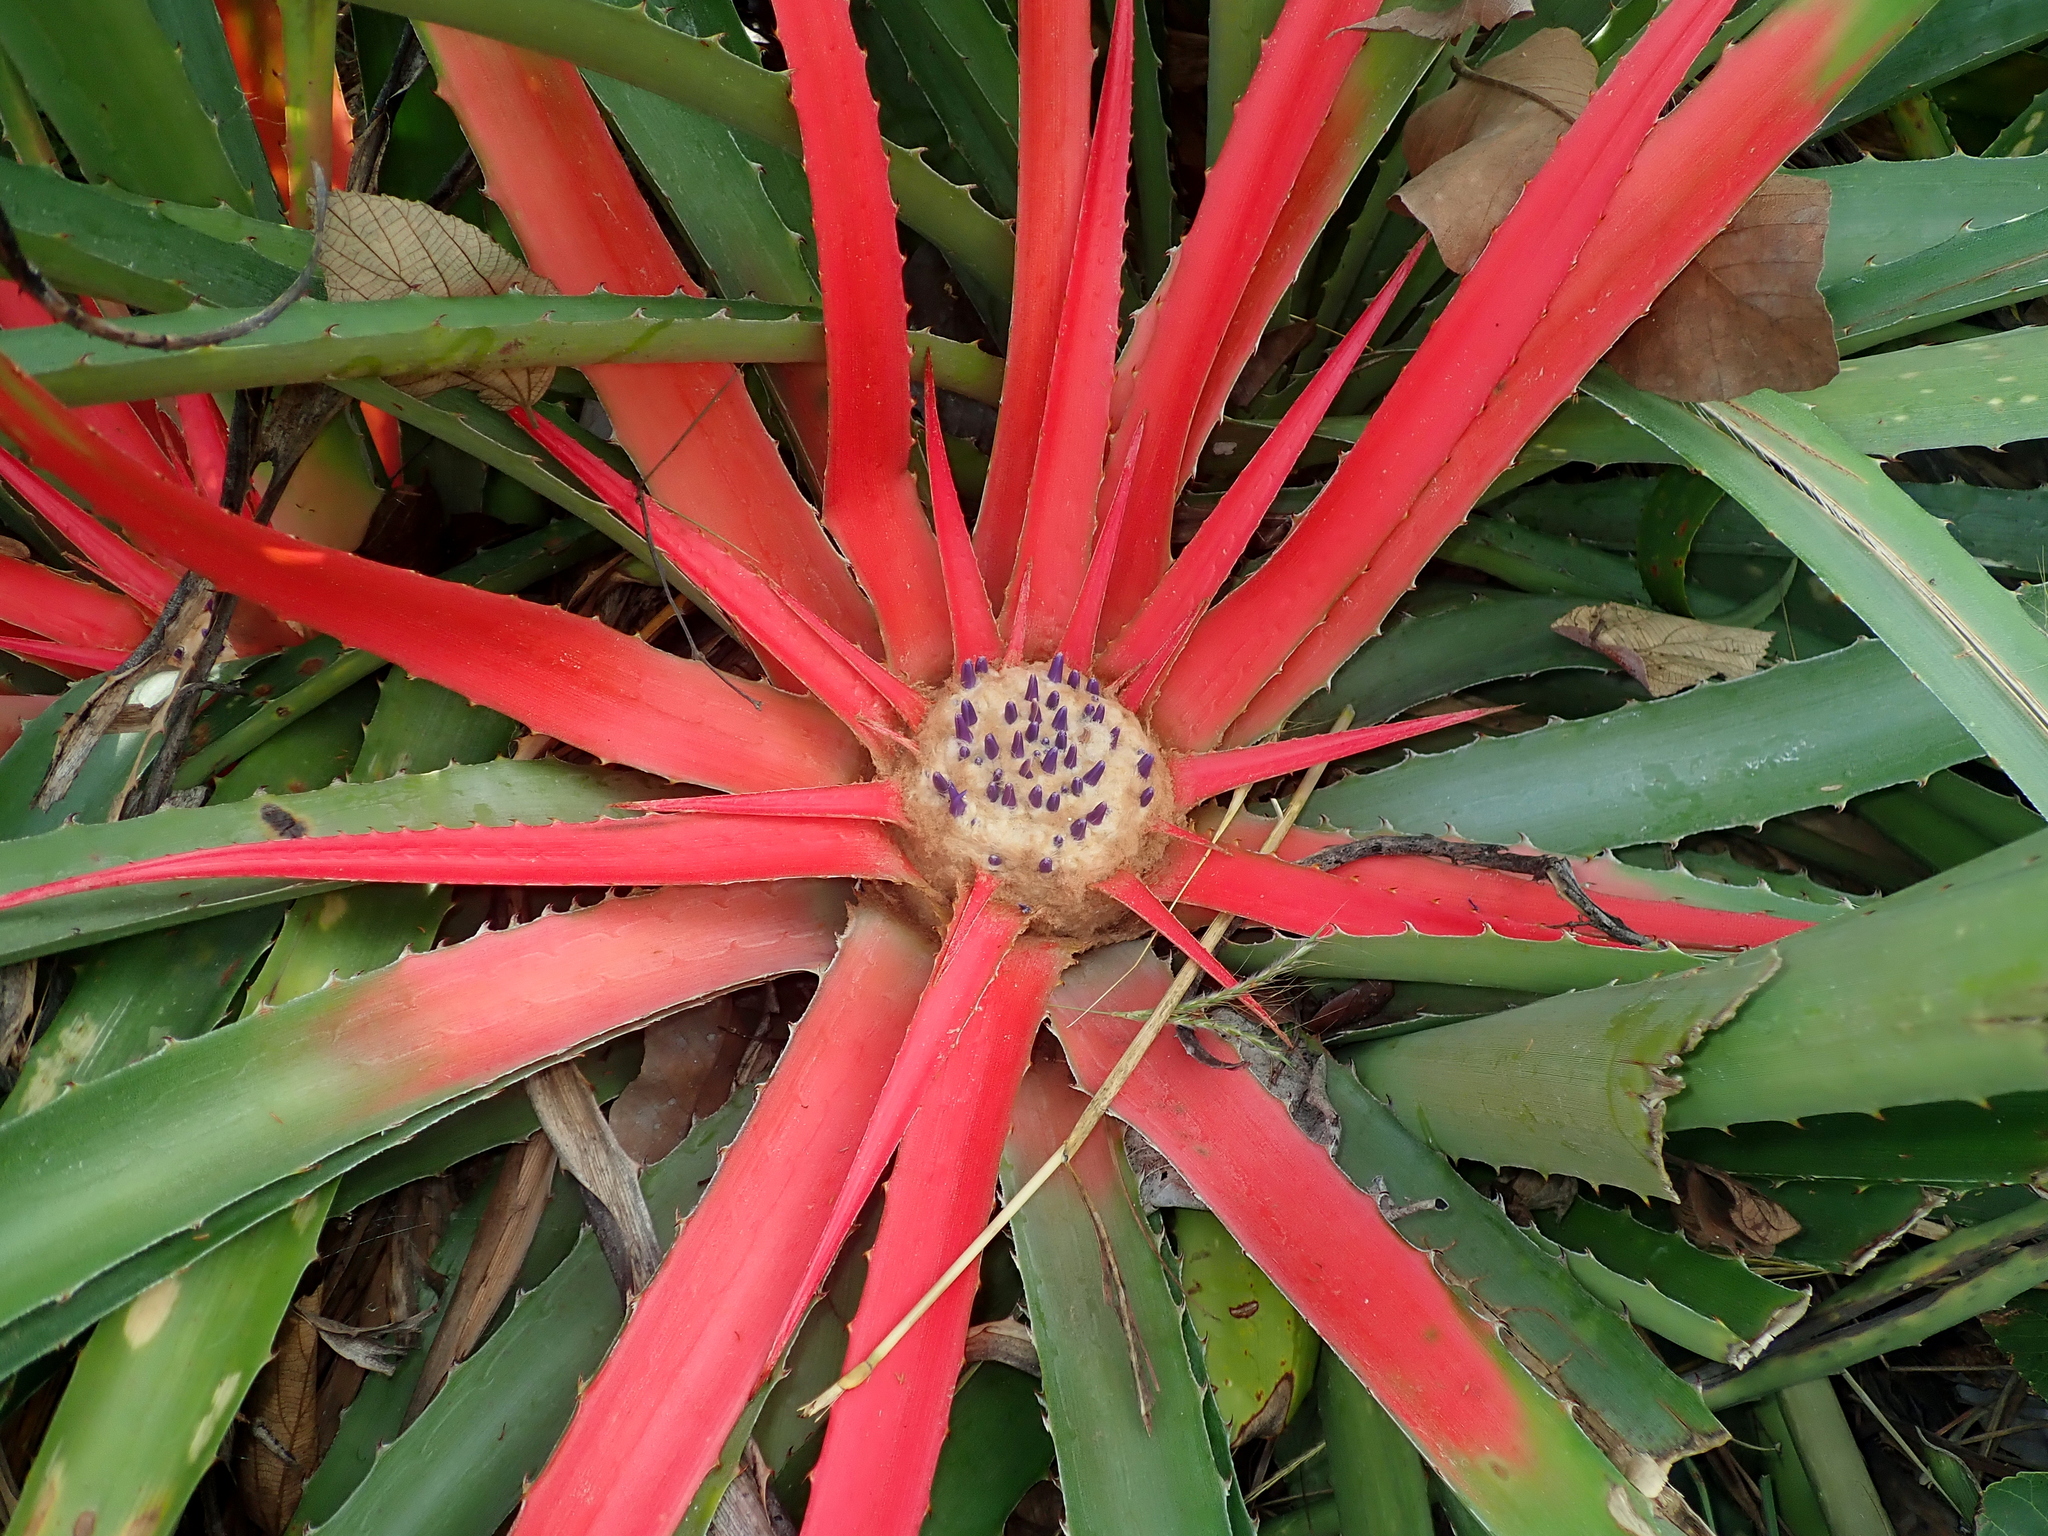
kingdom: Plantae
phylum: Tracheophyta
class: Liliopsida
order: Poales
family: Bromeliaceae
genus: Bromelia
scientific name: Bromelia villosa
